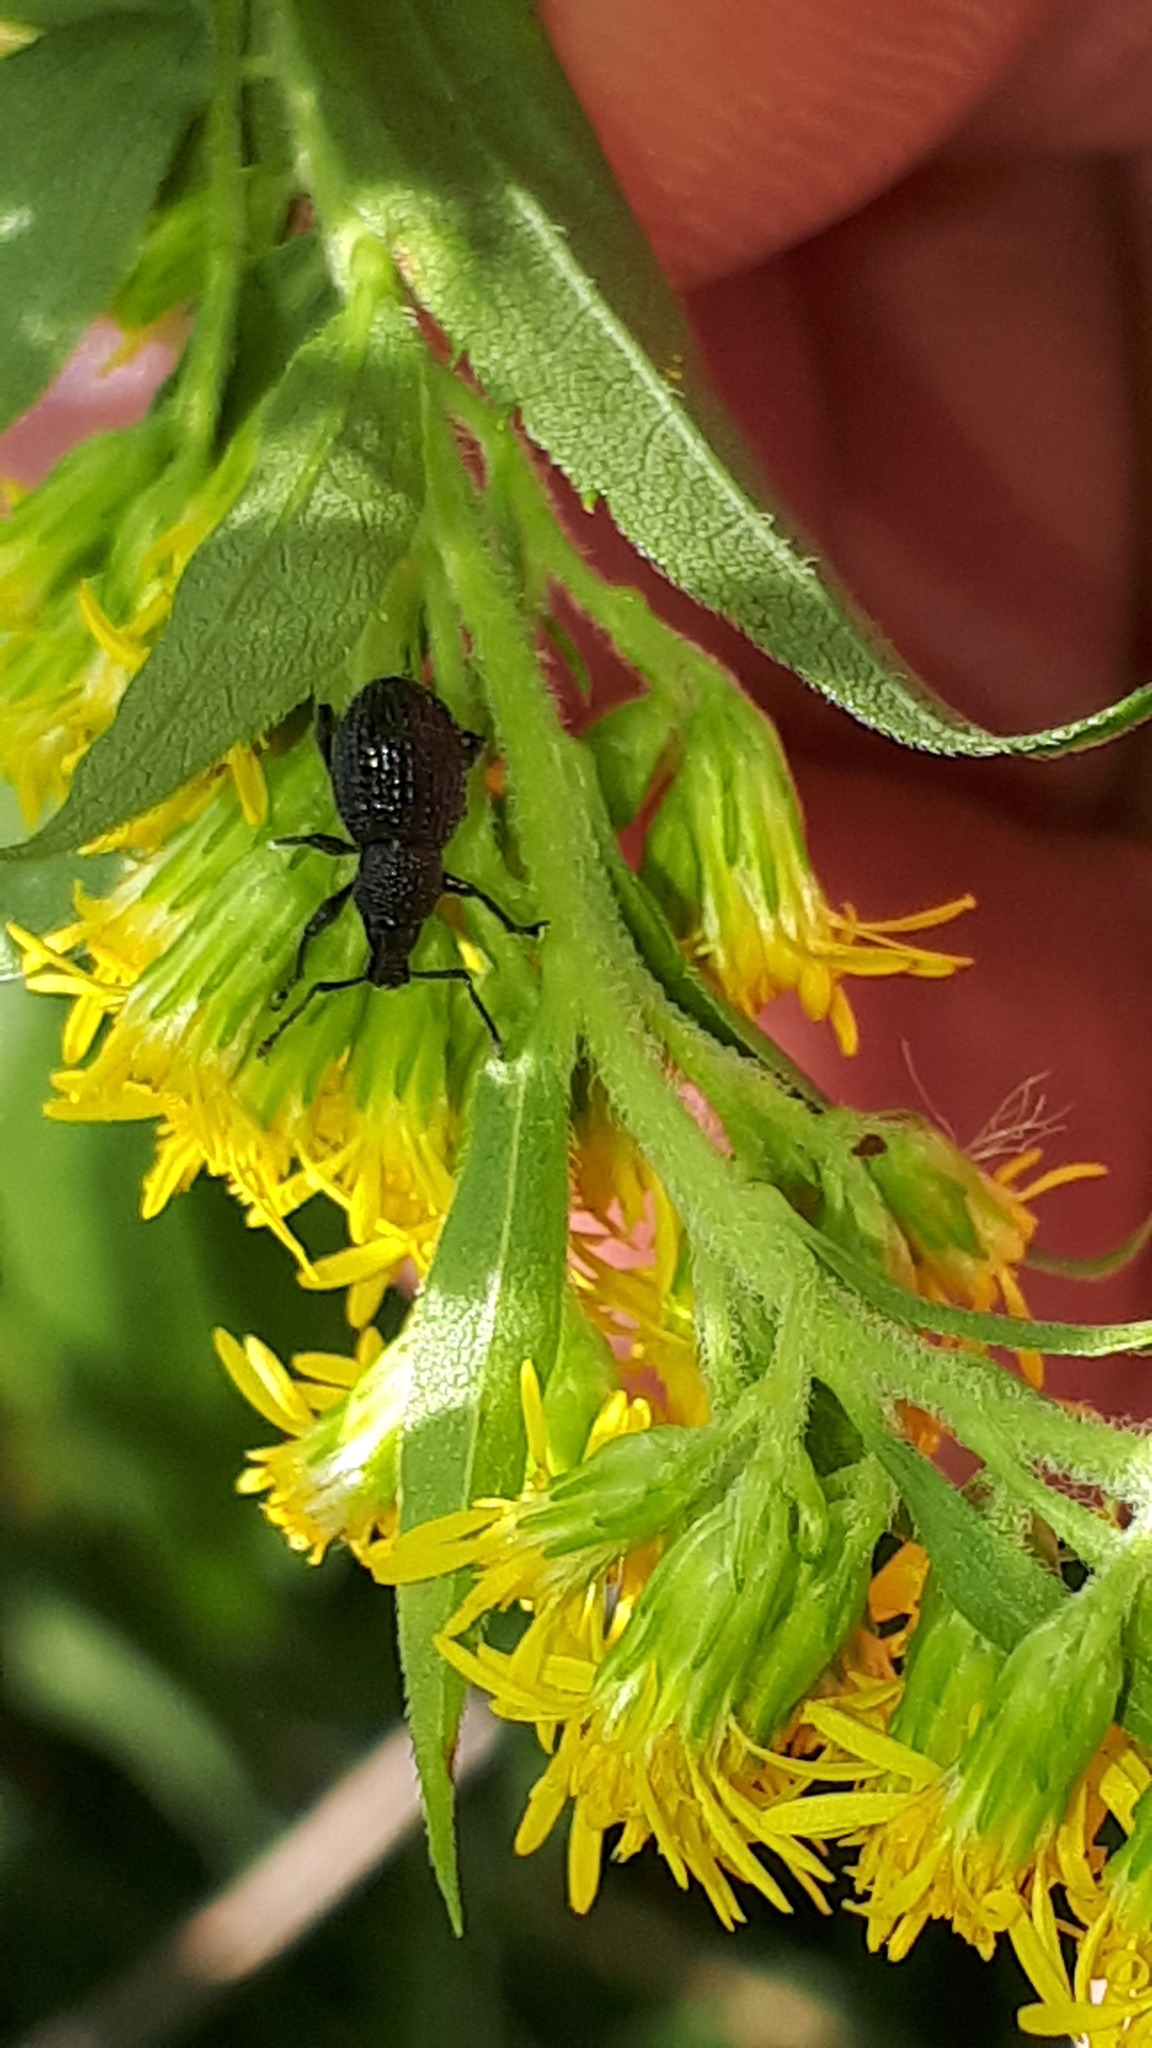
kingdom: Animalia
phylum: Arthropoda
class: Insecta
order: Coleoptera
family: Curculionidae
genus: Otiorhynchus
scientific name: Otiorhynchus pinastri
